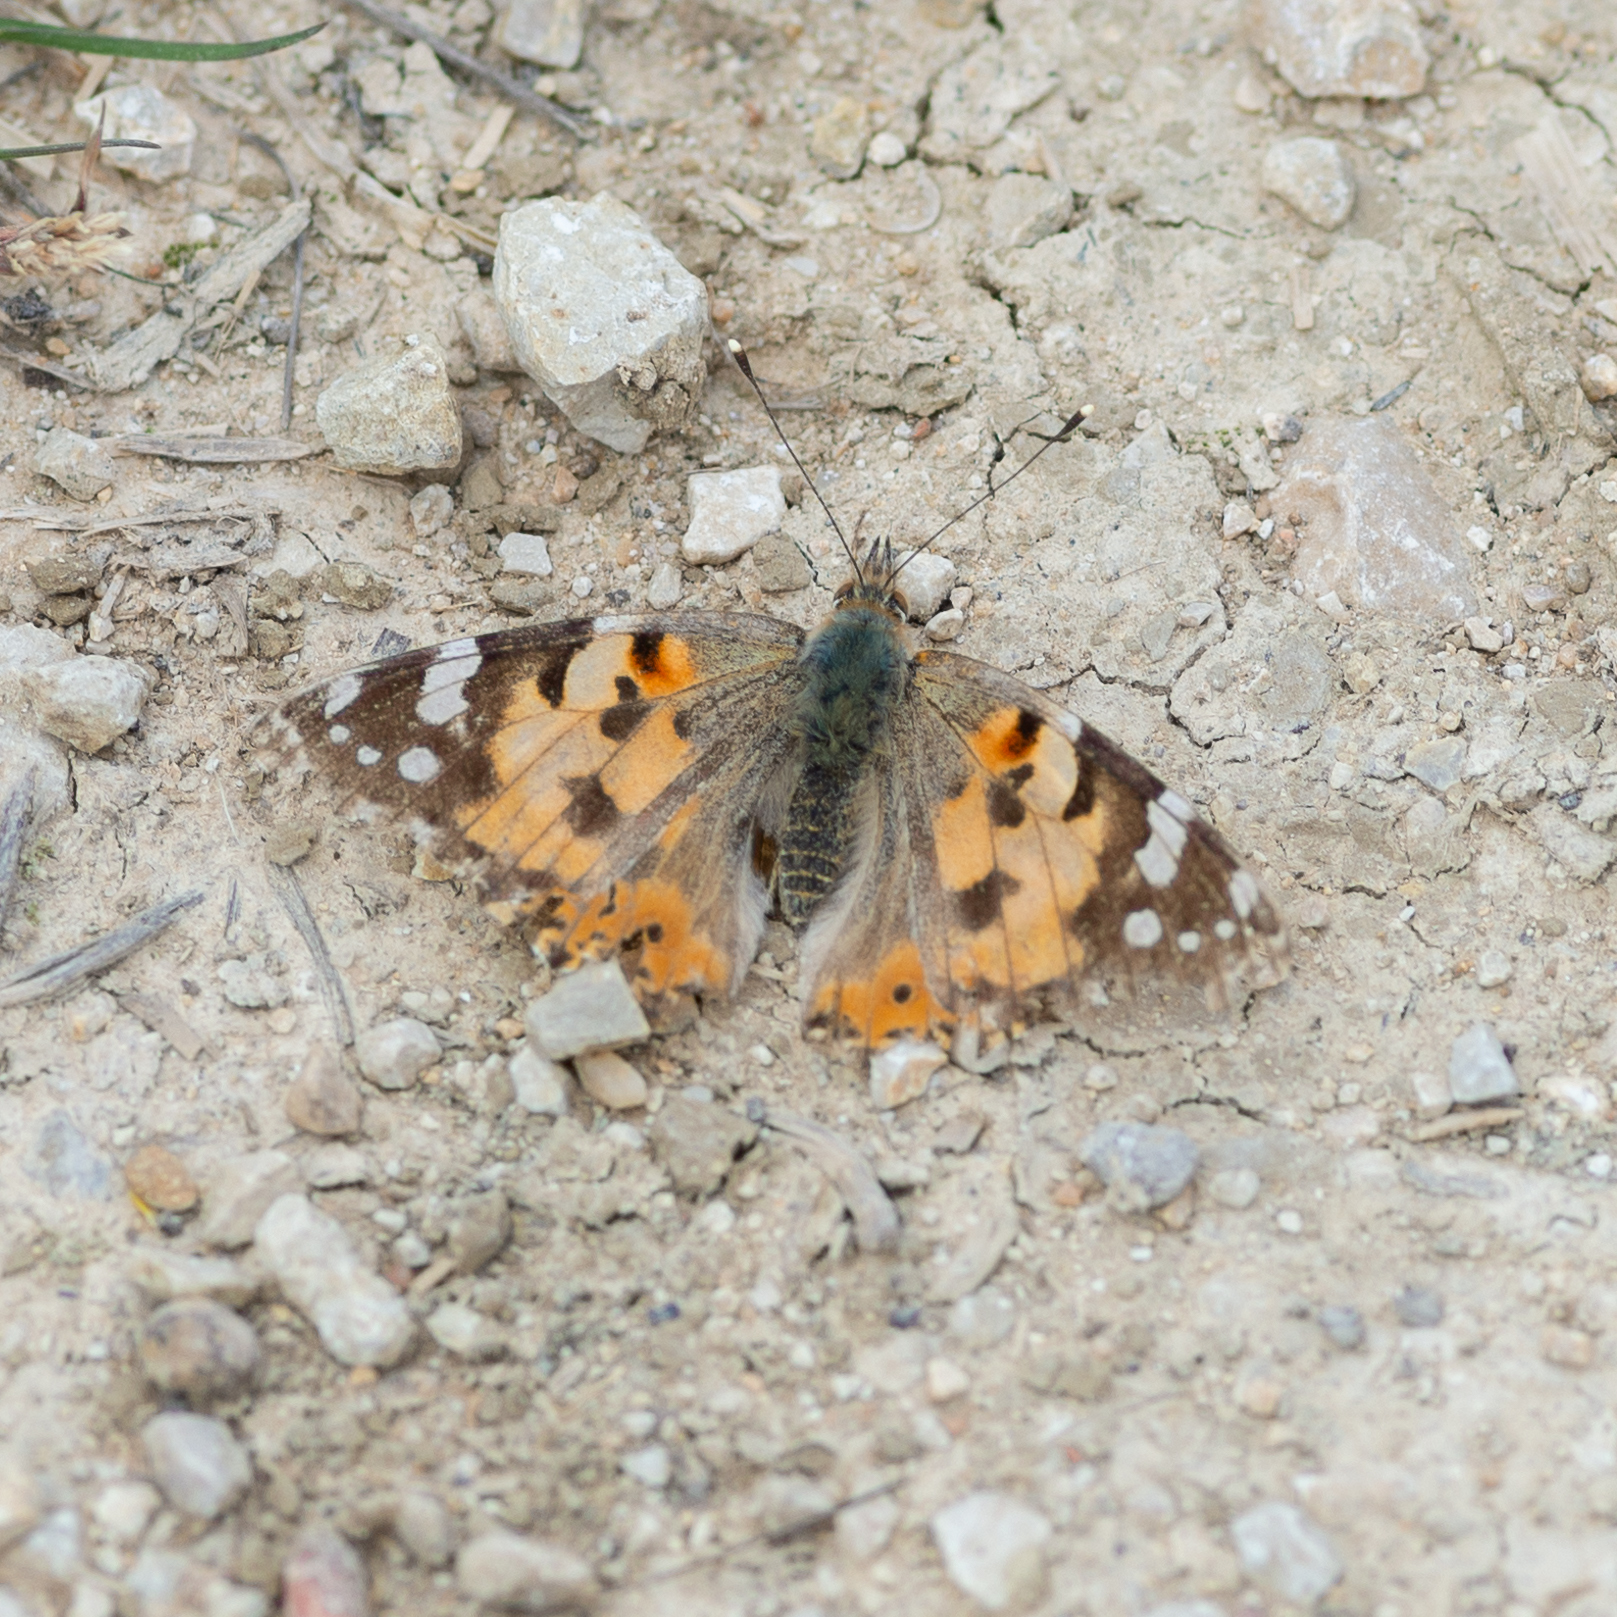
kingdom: Animalia
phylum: Arthropoda
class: Insecta
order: Lepidoptera
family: Nymphalidae
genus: Vanessa
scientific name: Vanessa cardui
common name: Painted lady
